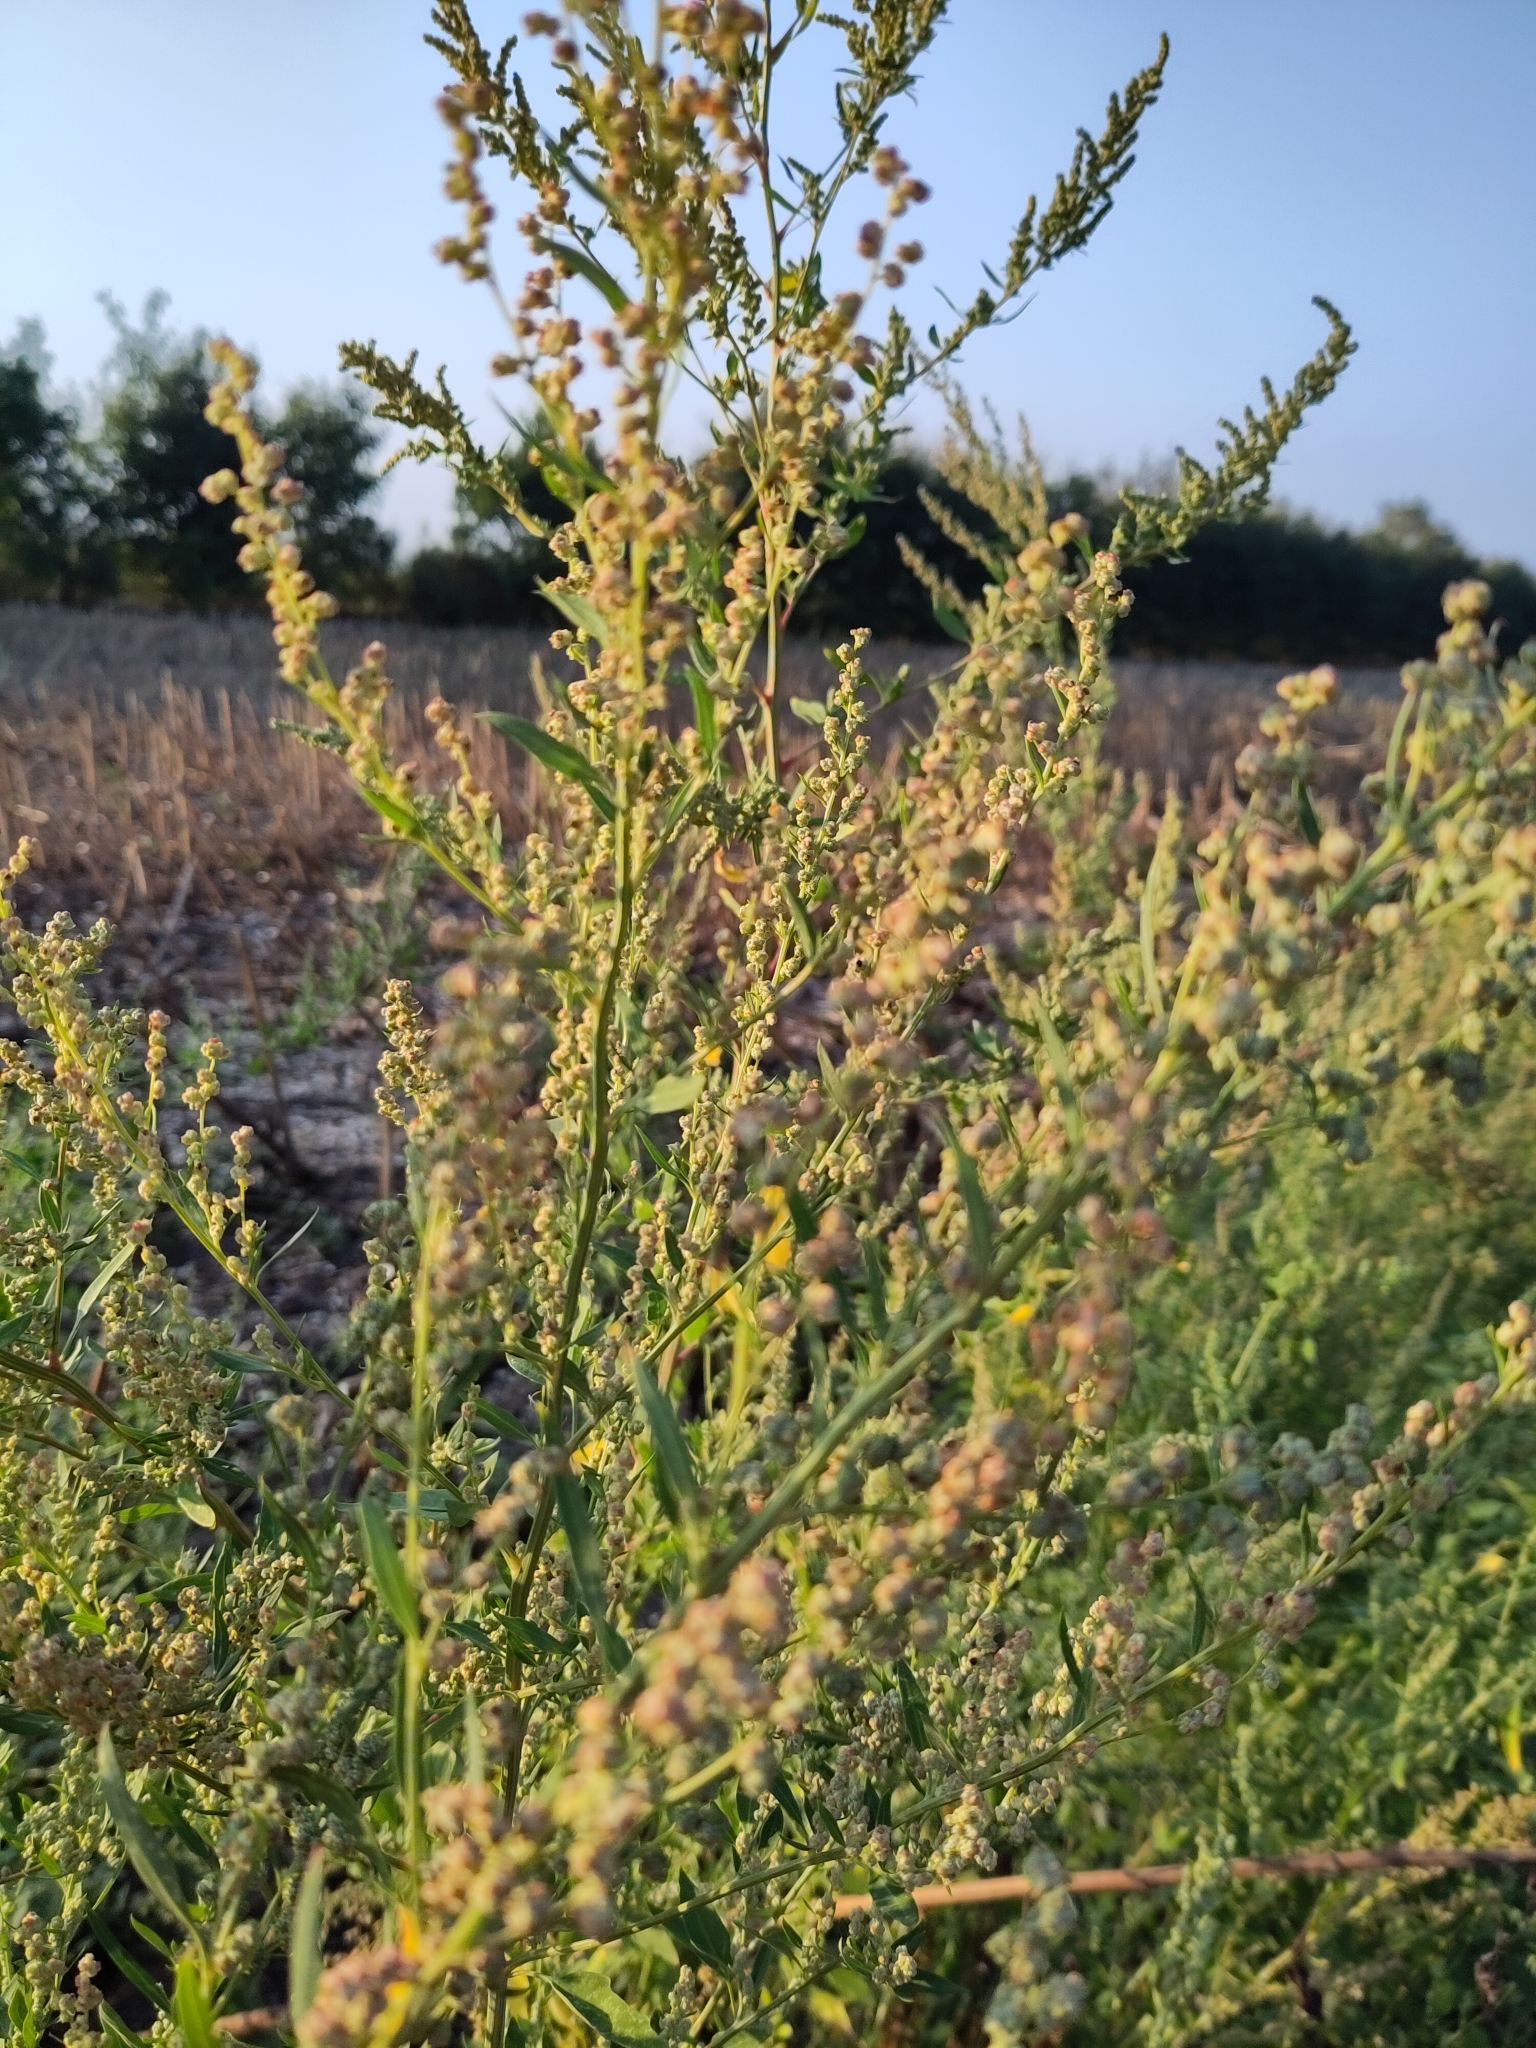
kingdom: Plantae
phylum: Tracheophyta
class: Magnoliopsida
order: Caryophyllales
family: Amaranthaceae
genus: Chenopodium
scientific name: Chenopodium album
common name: Fat-hen
